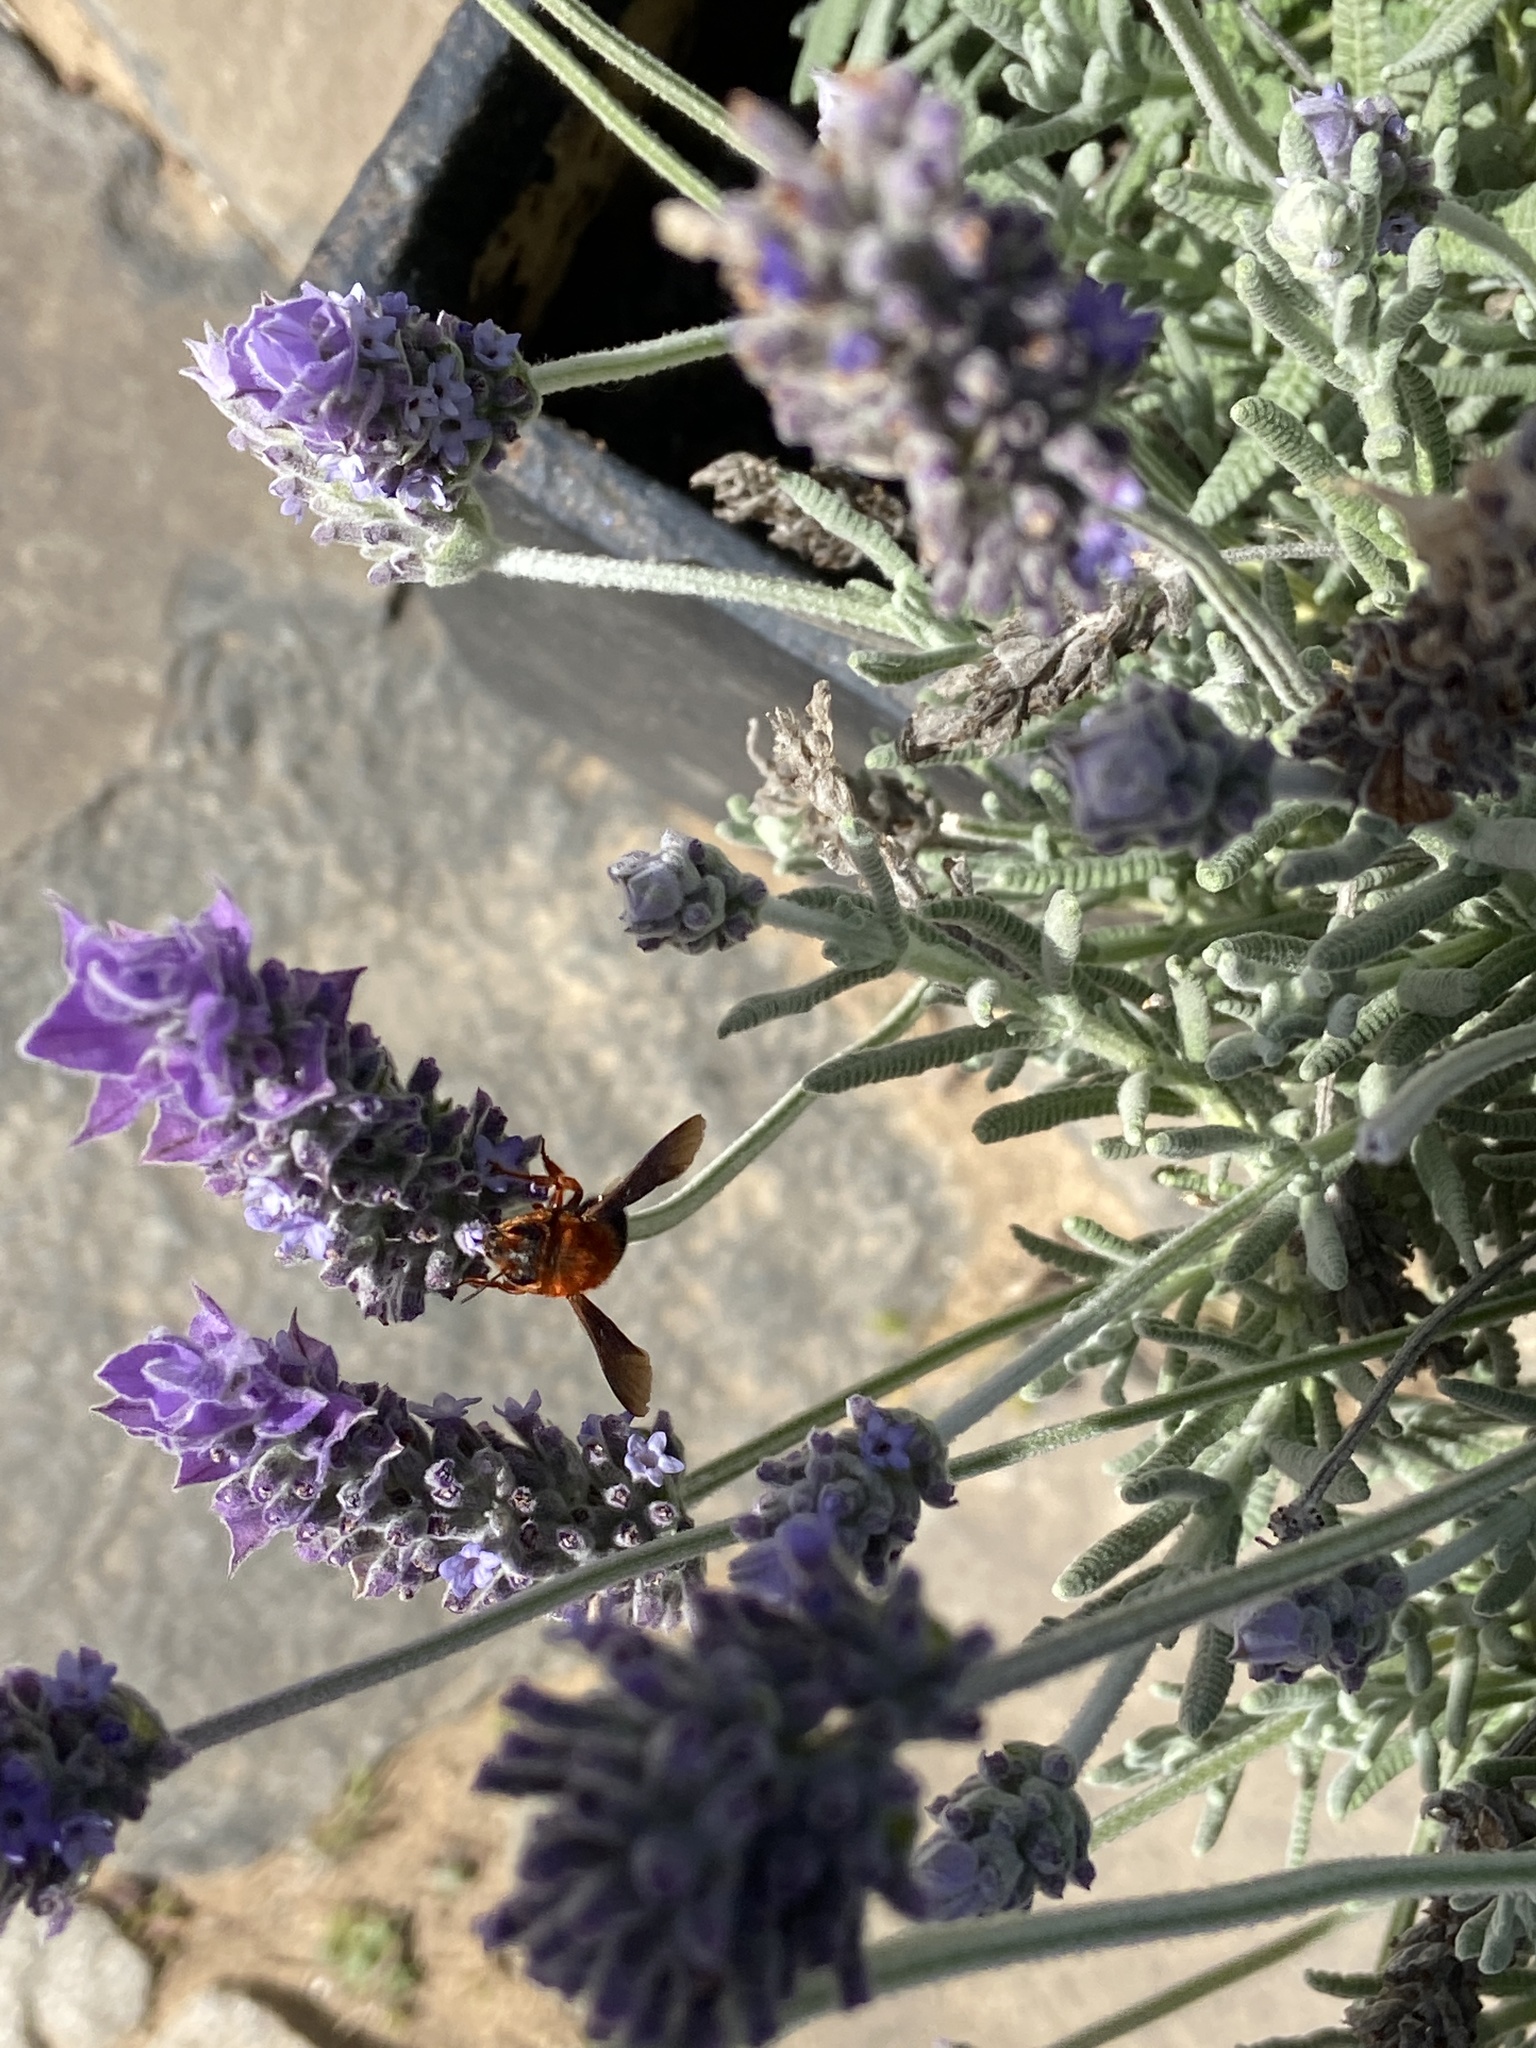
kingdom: Animalia
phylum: Arthropoda
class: Insecta
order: Hymenoptera
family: Megachilidae
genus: Megachile
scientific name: Megachile sicula
